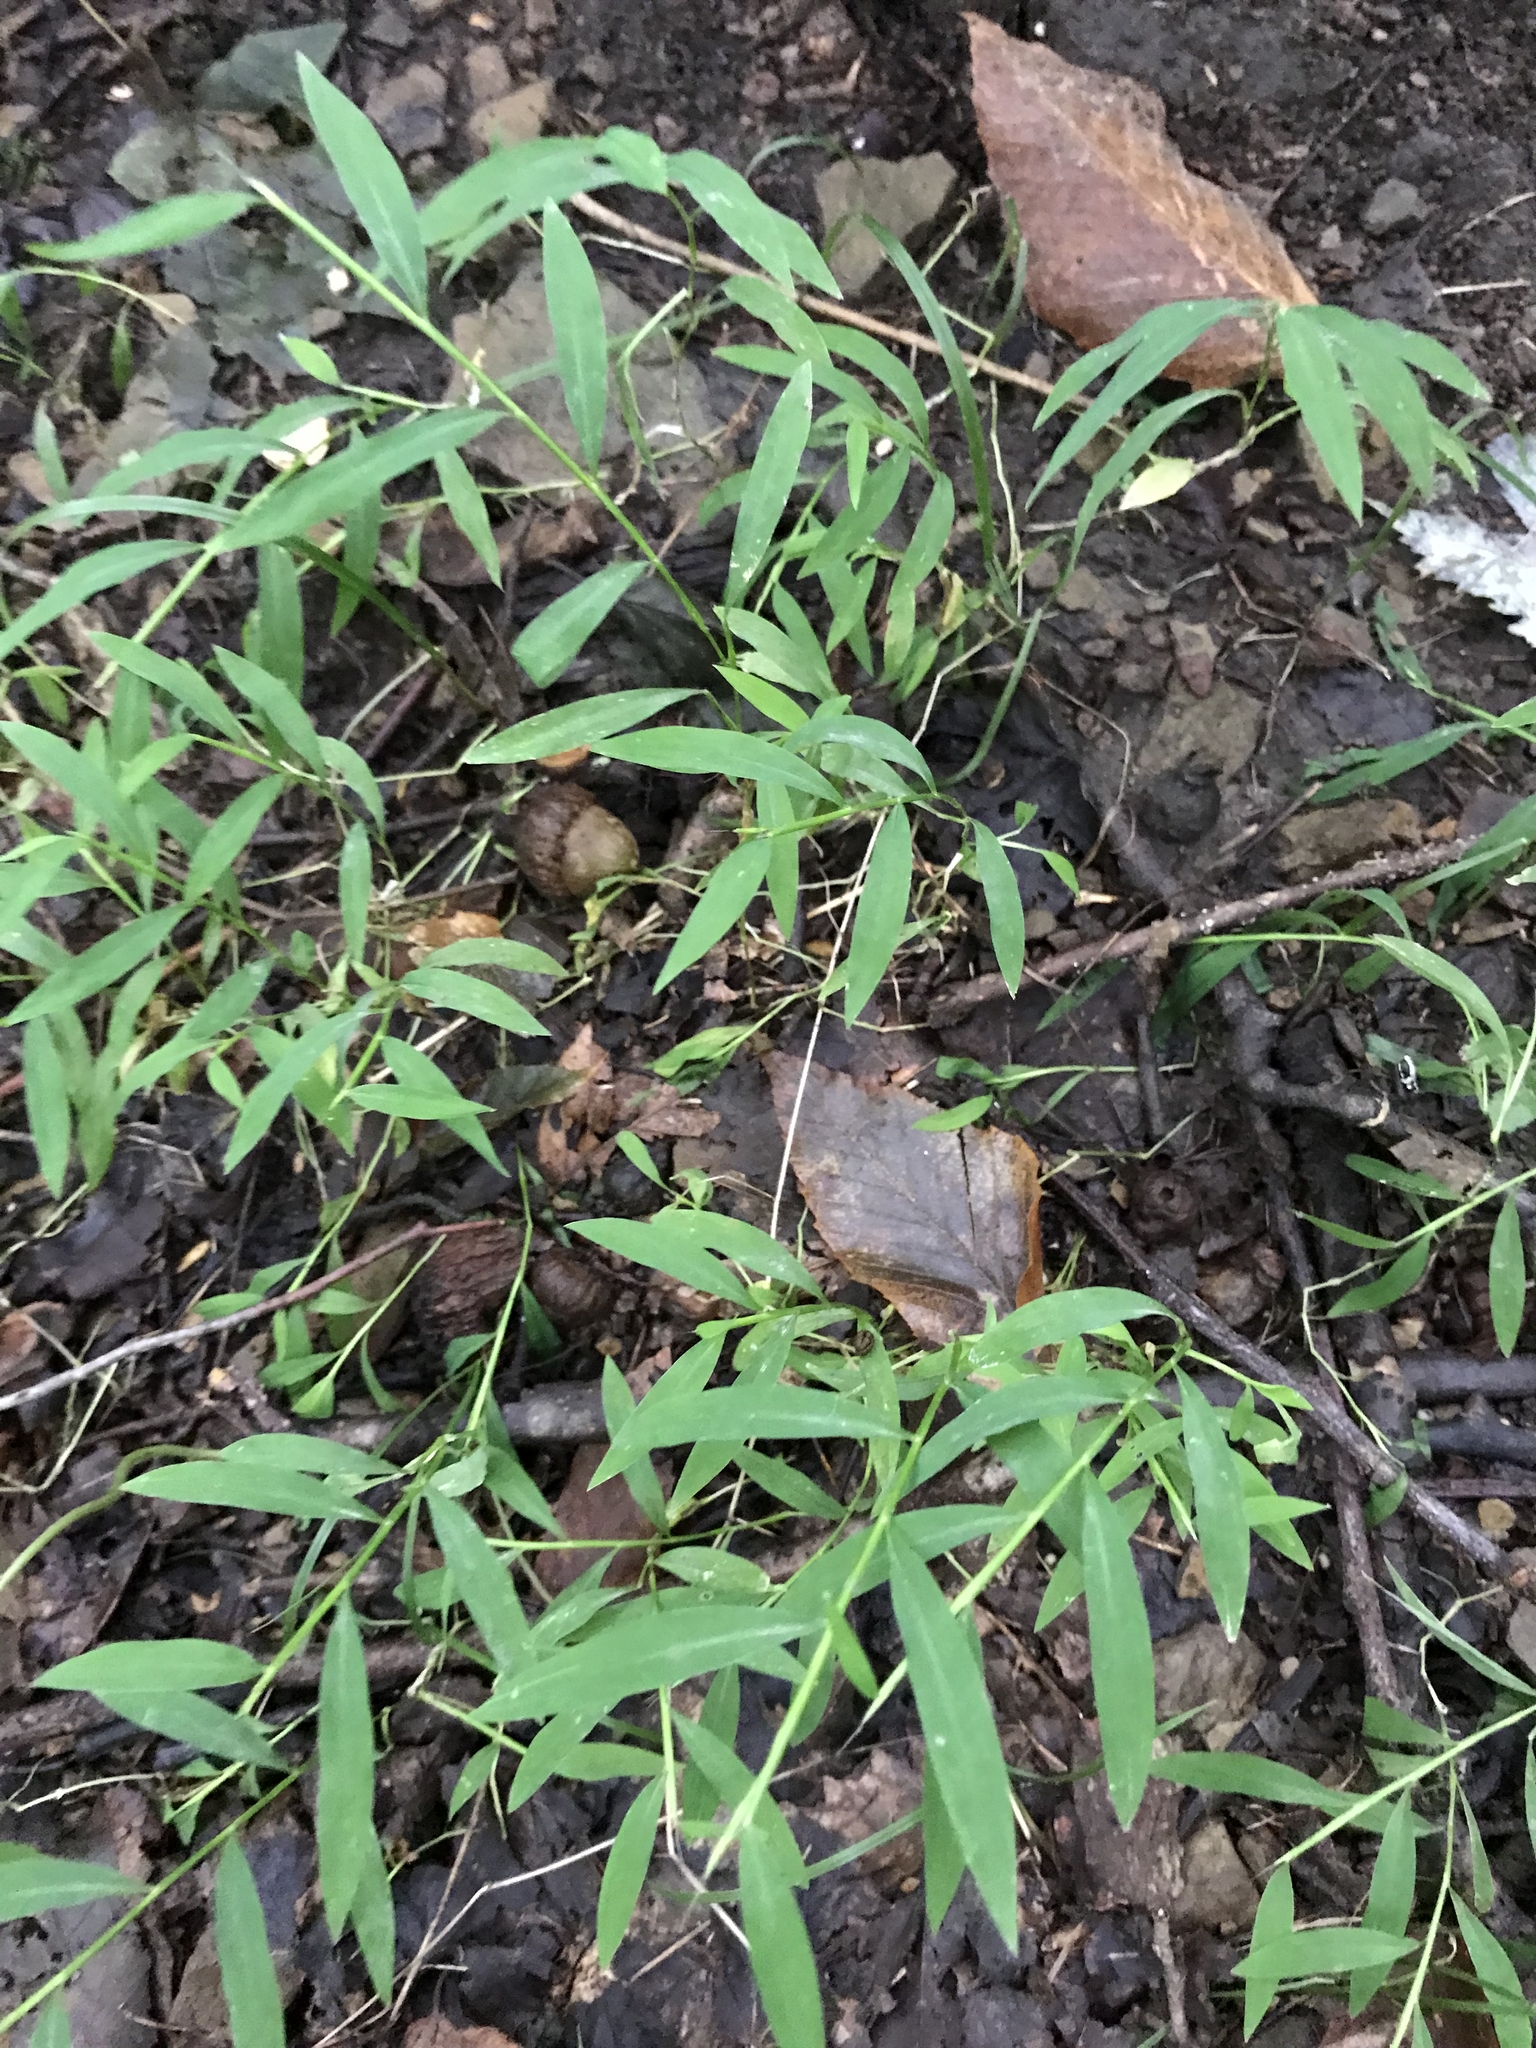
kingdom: Plantae
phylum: Tracheophyta
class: Liliopsida
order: Poales
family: Poaceae
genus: Microstegium
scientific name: Microstegium vimineum
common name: Japanese stiltgrass
